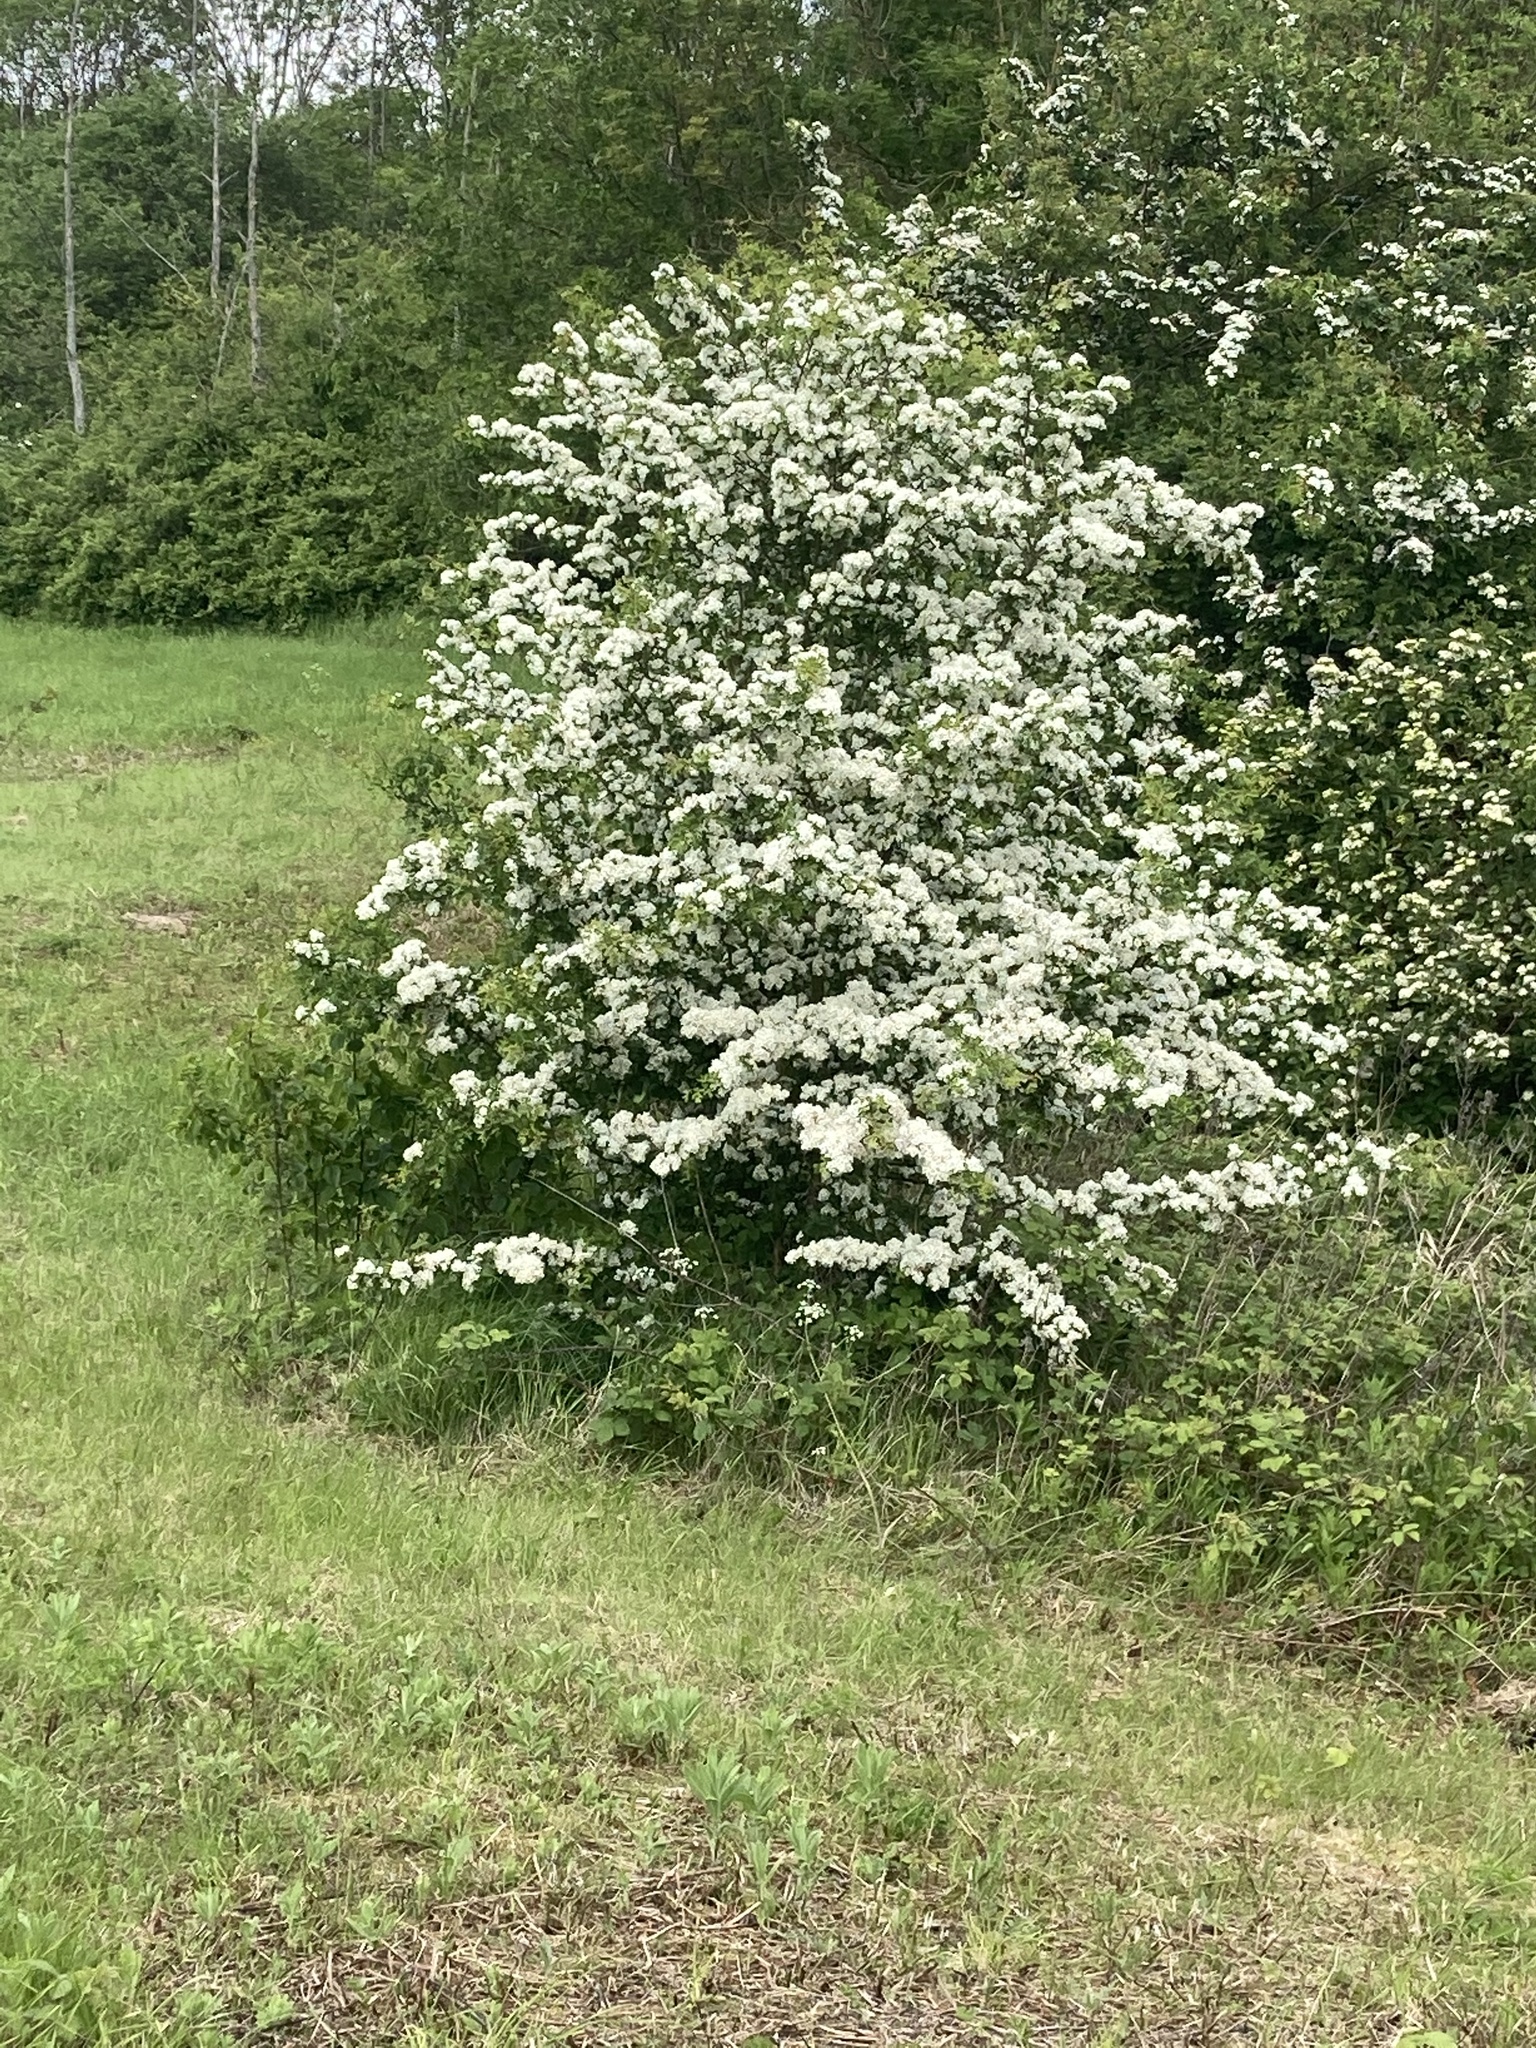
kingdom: Plantae
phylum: Tracheophyta
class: Magnoliopsida
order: Rosales
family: Rosaceae
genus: Crataegus
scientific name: Crataegus monogyna
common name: Hawthorn
